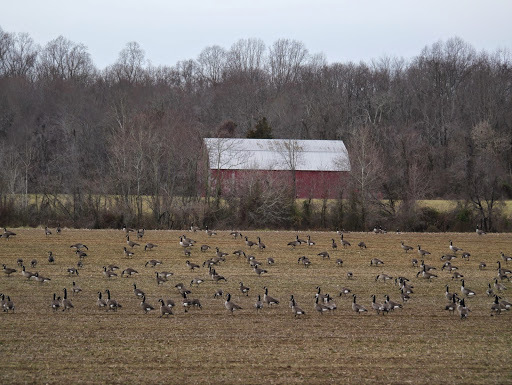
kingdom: Animalia
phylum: Chordata
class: Aves
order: Anseriformes
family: Anatidae
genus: Branta
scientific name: Branta canadensis
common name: Canada goose
